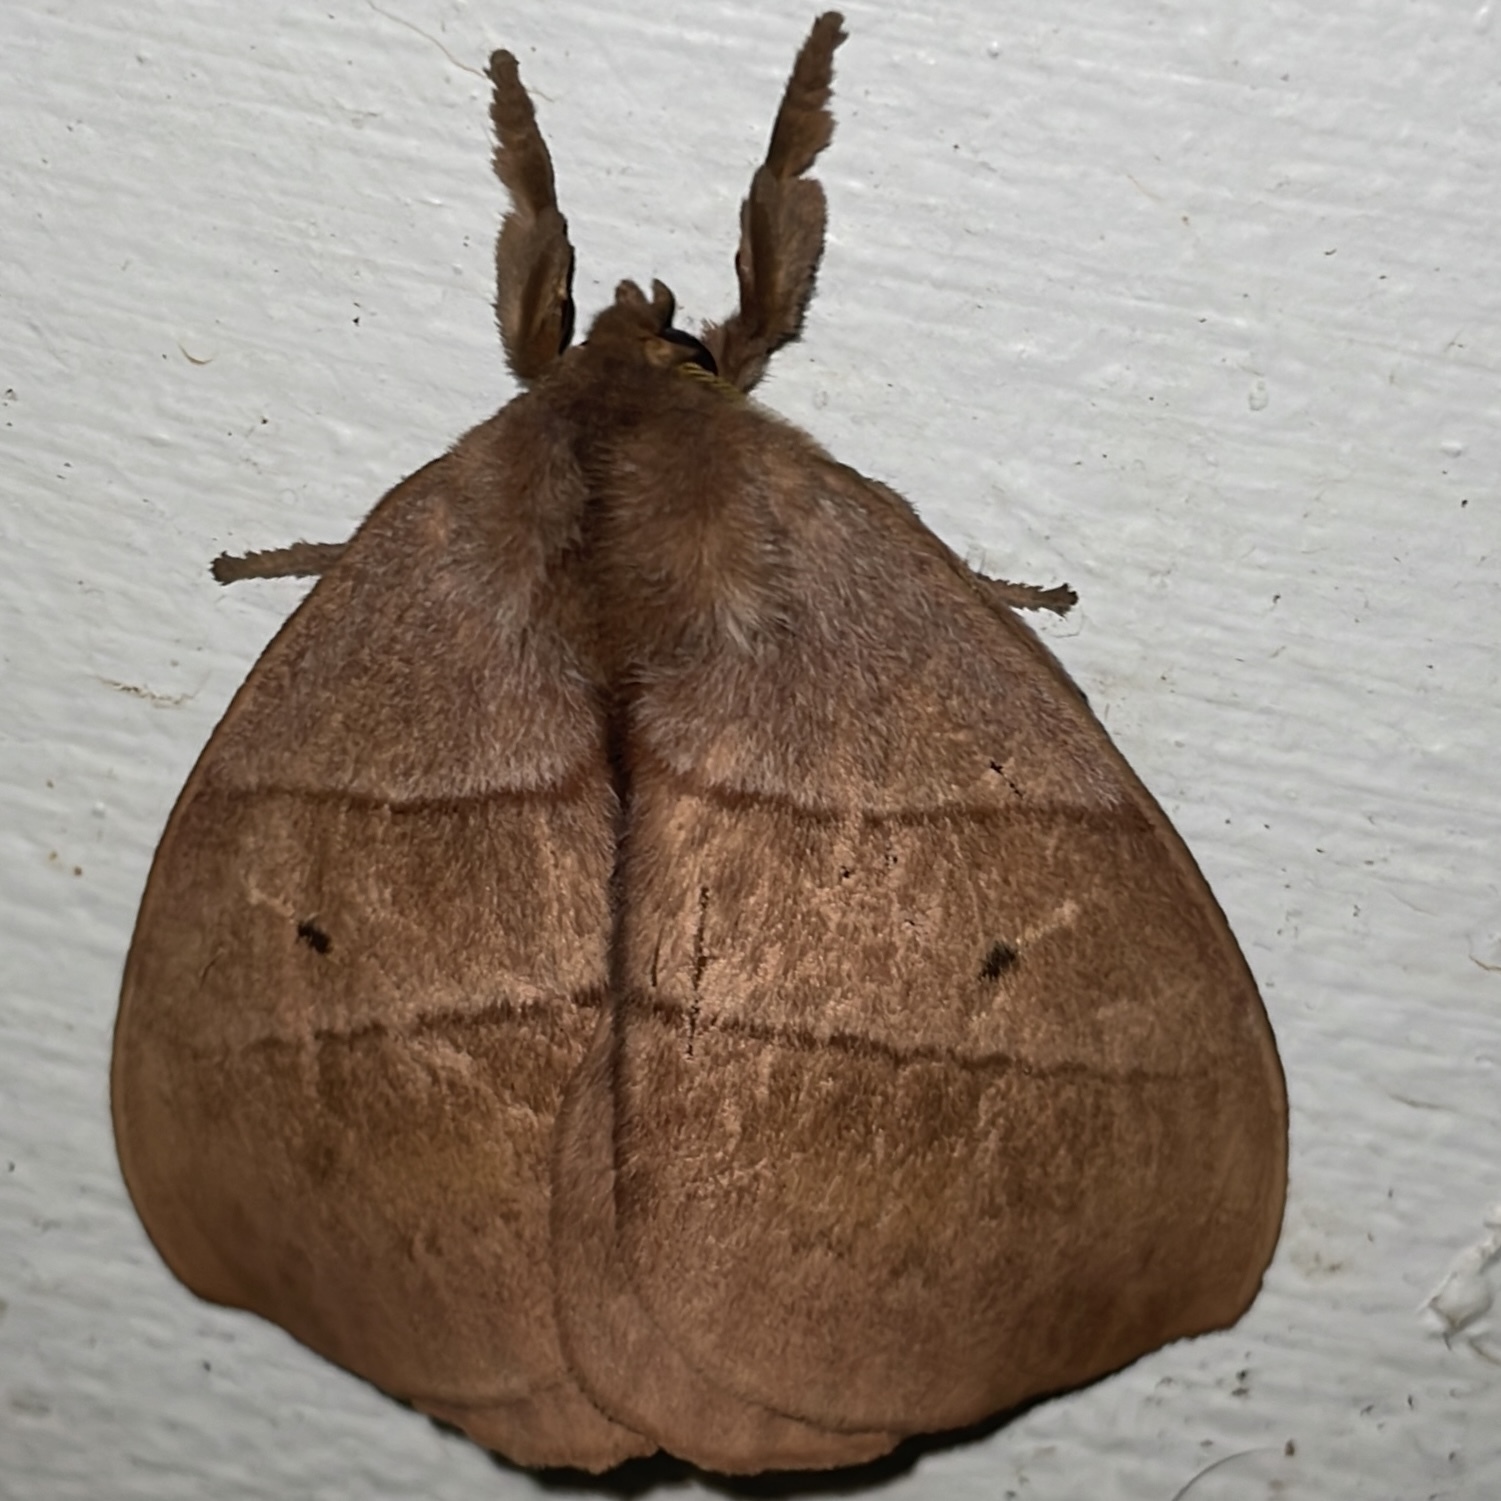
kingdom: Animalia
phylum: Arthropoda
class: Insecta
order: Lepidoptera
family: Saturniidae
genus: Periphoba
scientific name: Periphoba augur
